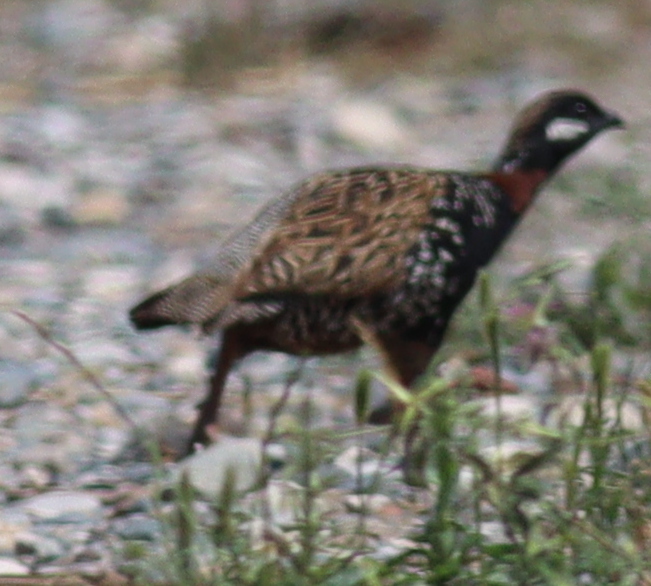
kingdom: Animalia
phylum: Chordata
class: Aves
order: Galliformes
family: Phasianidae
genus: Francolinus
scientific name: Francolinus francolinus
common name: Black francolin
